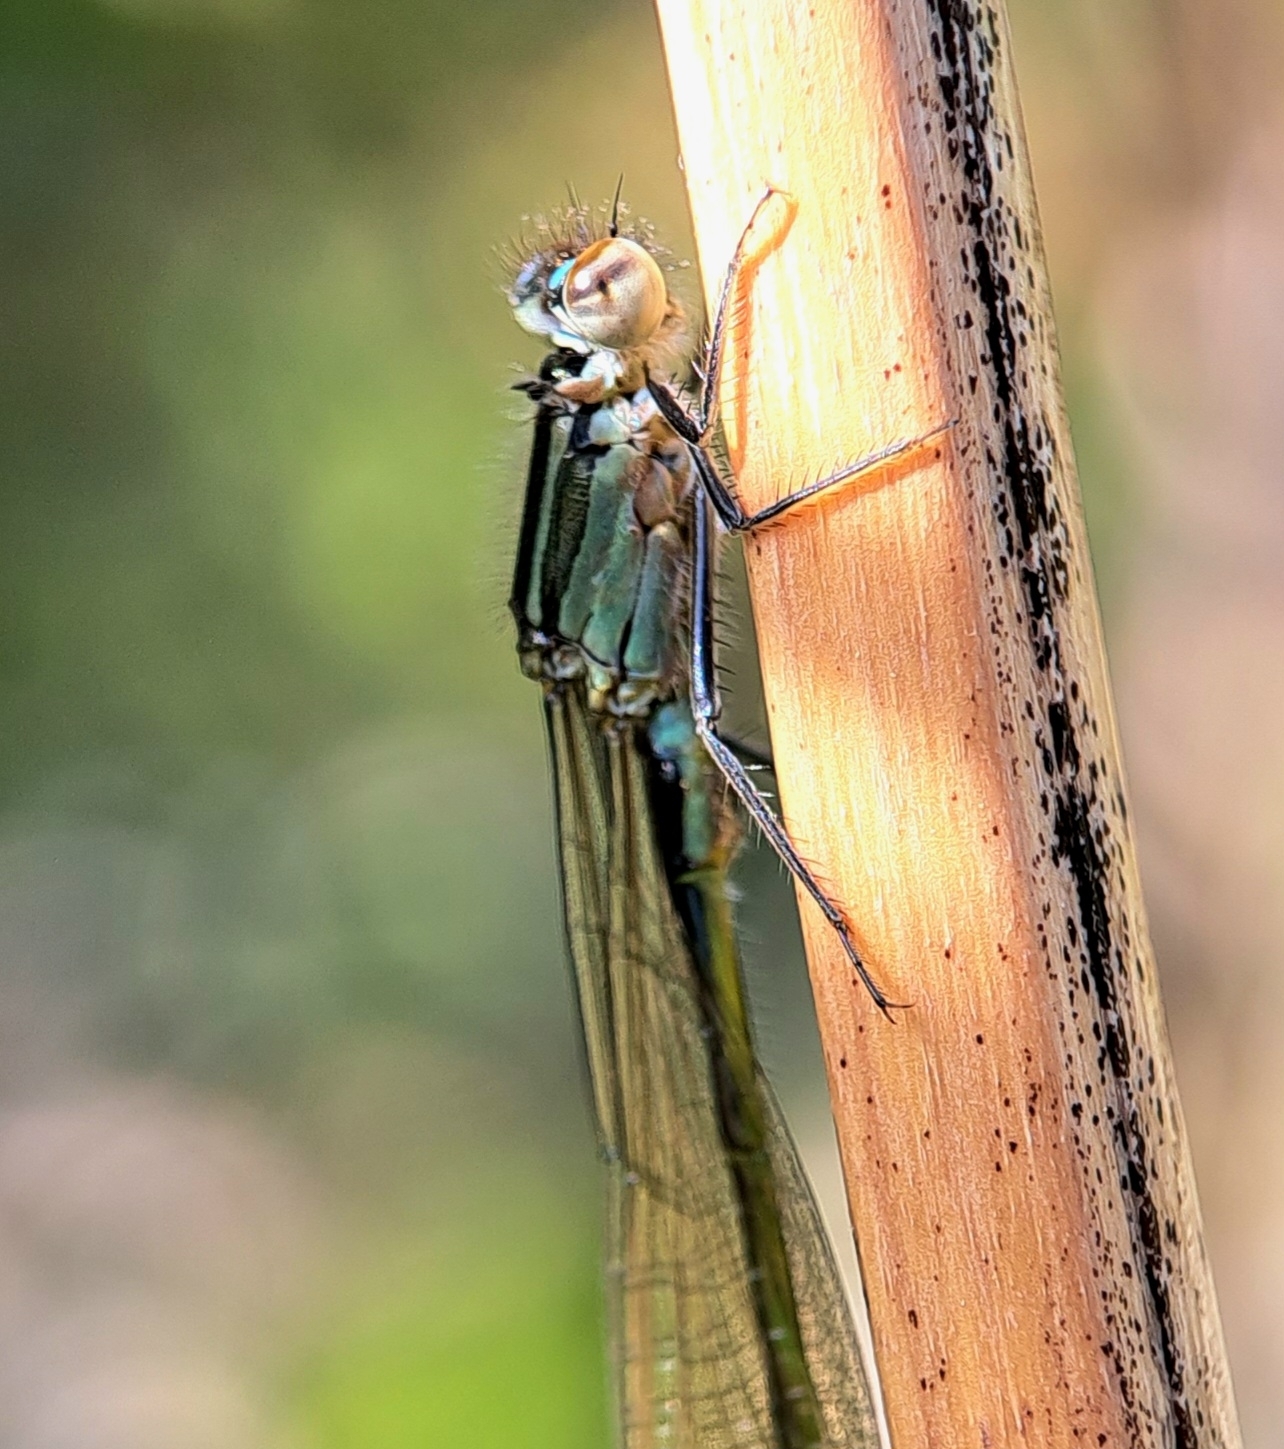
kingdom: Animalia
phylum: Arthropoda
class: Insecta
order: Odonata
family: Coenagrionidae
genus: Ischnura
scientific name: Ischnura elegans
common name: Blue-tailed damselfly
